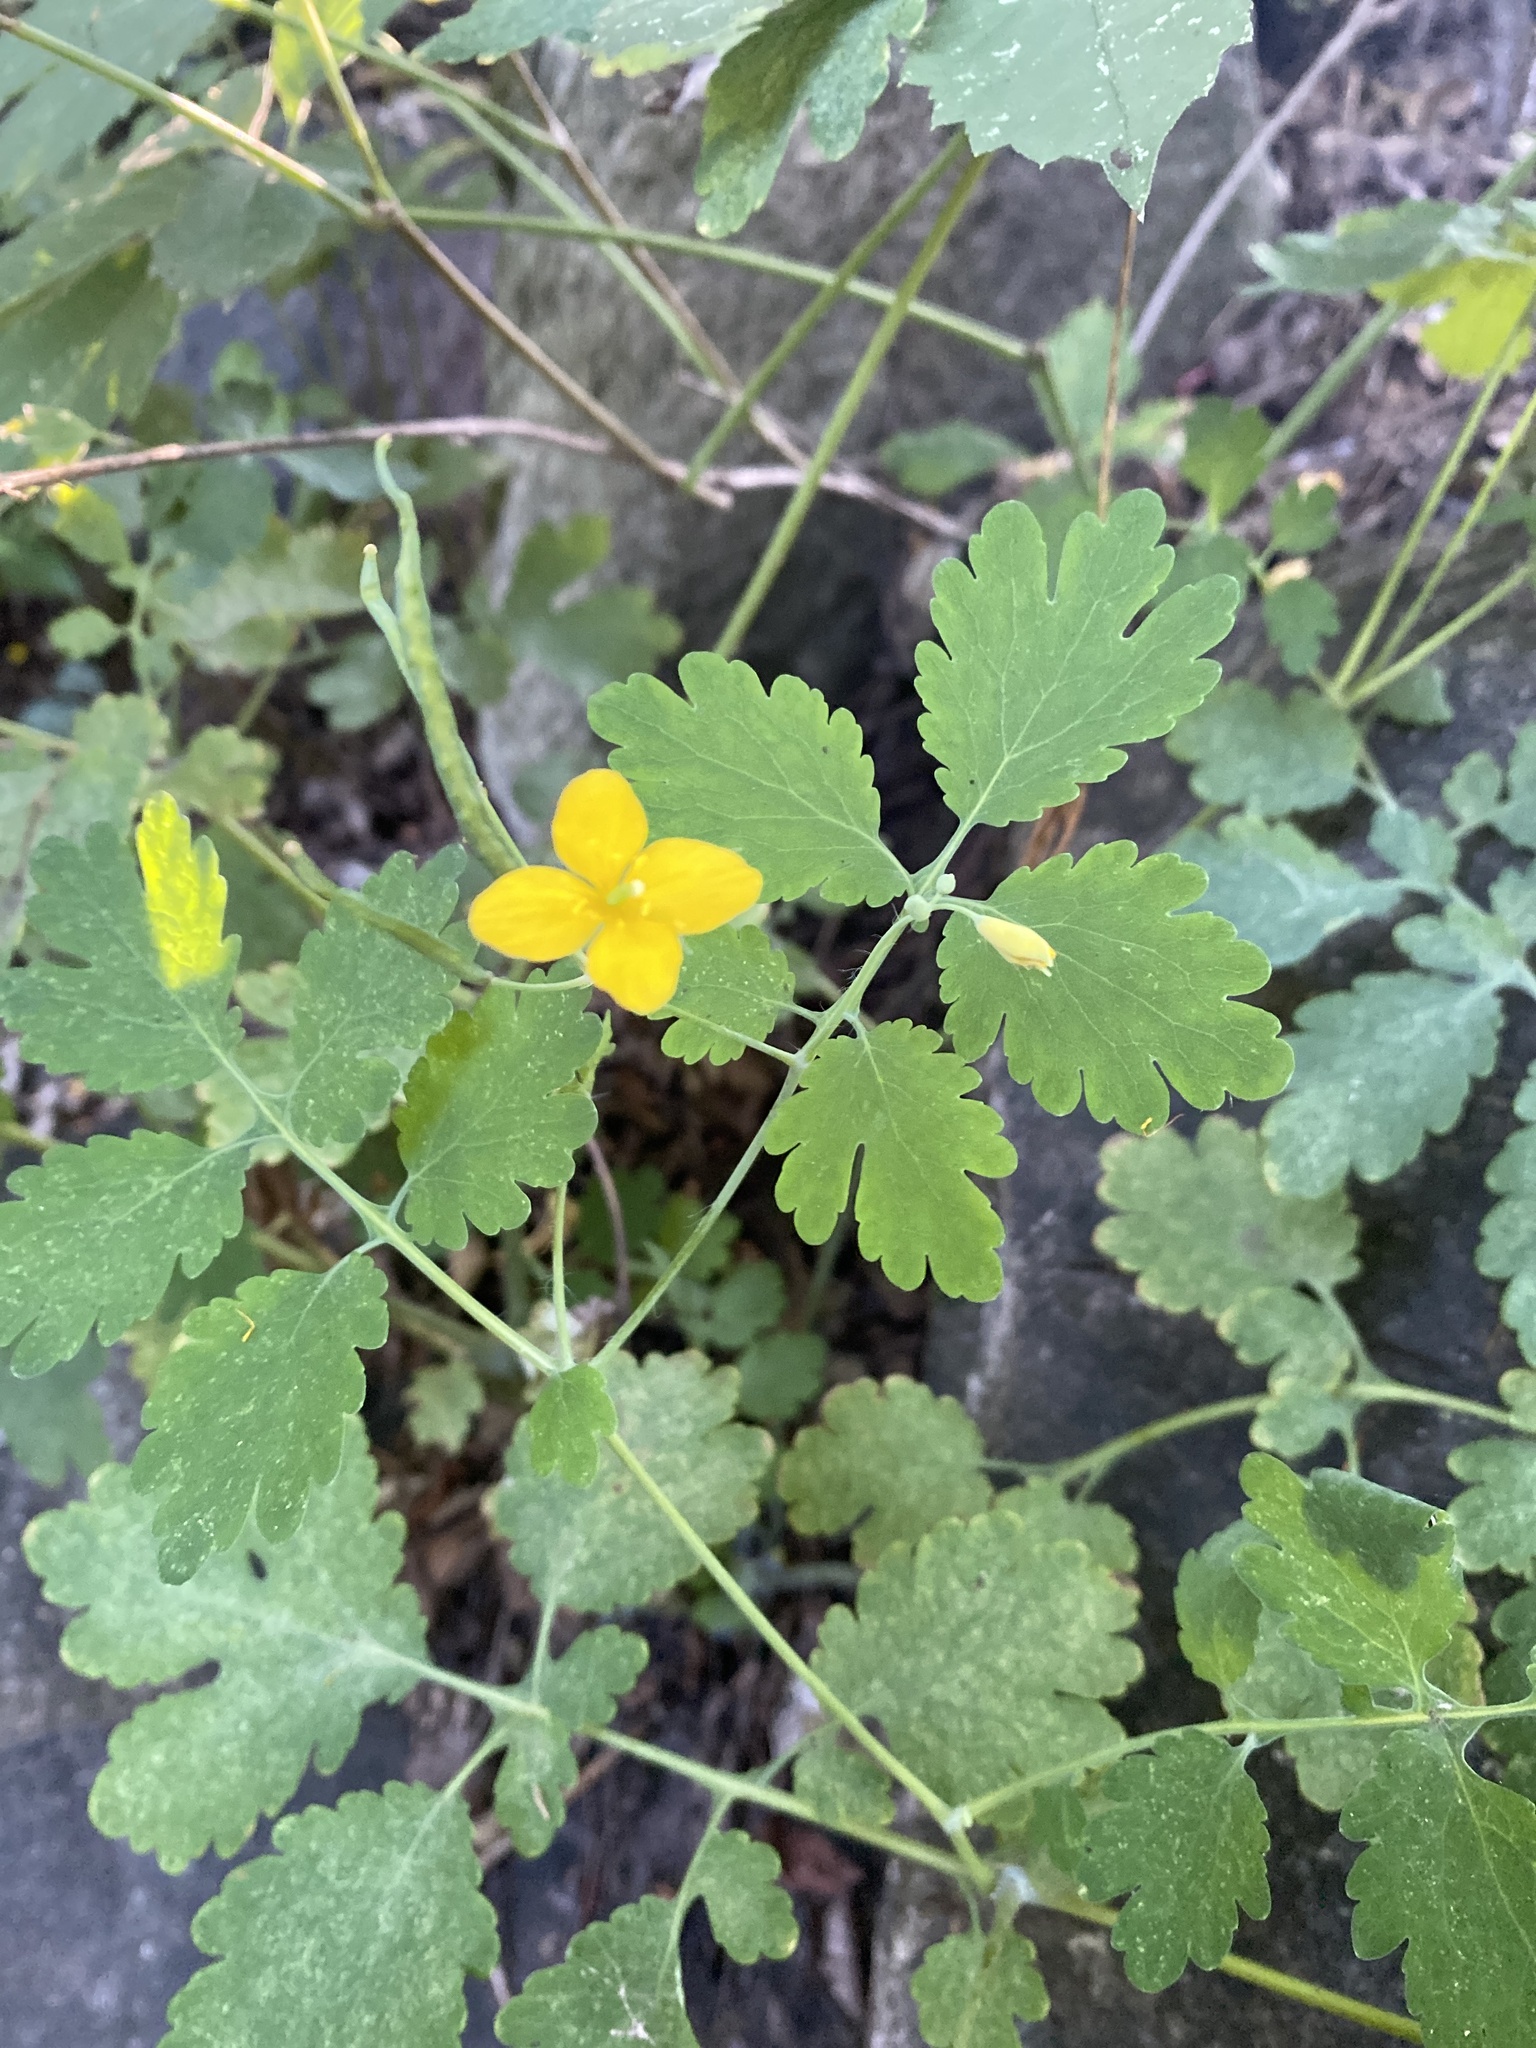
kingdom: Plantae
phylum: Tracheophyta
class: Magnoliopsida
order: Ranunculales
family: Papaveraceae
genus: Chelidonium
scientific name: Chelidonium majus
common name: Greater celandine
